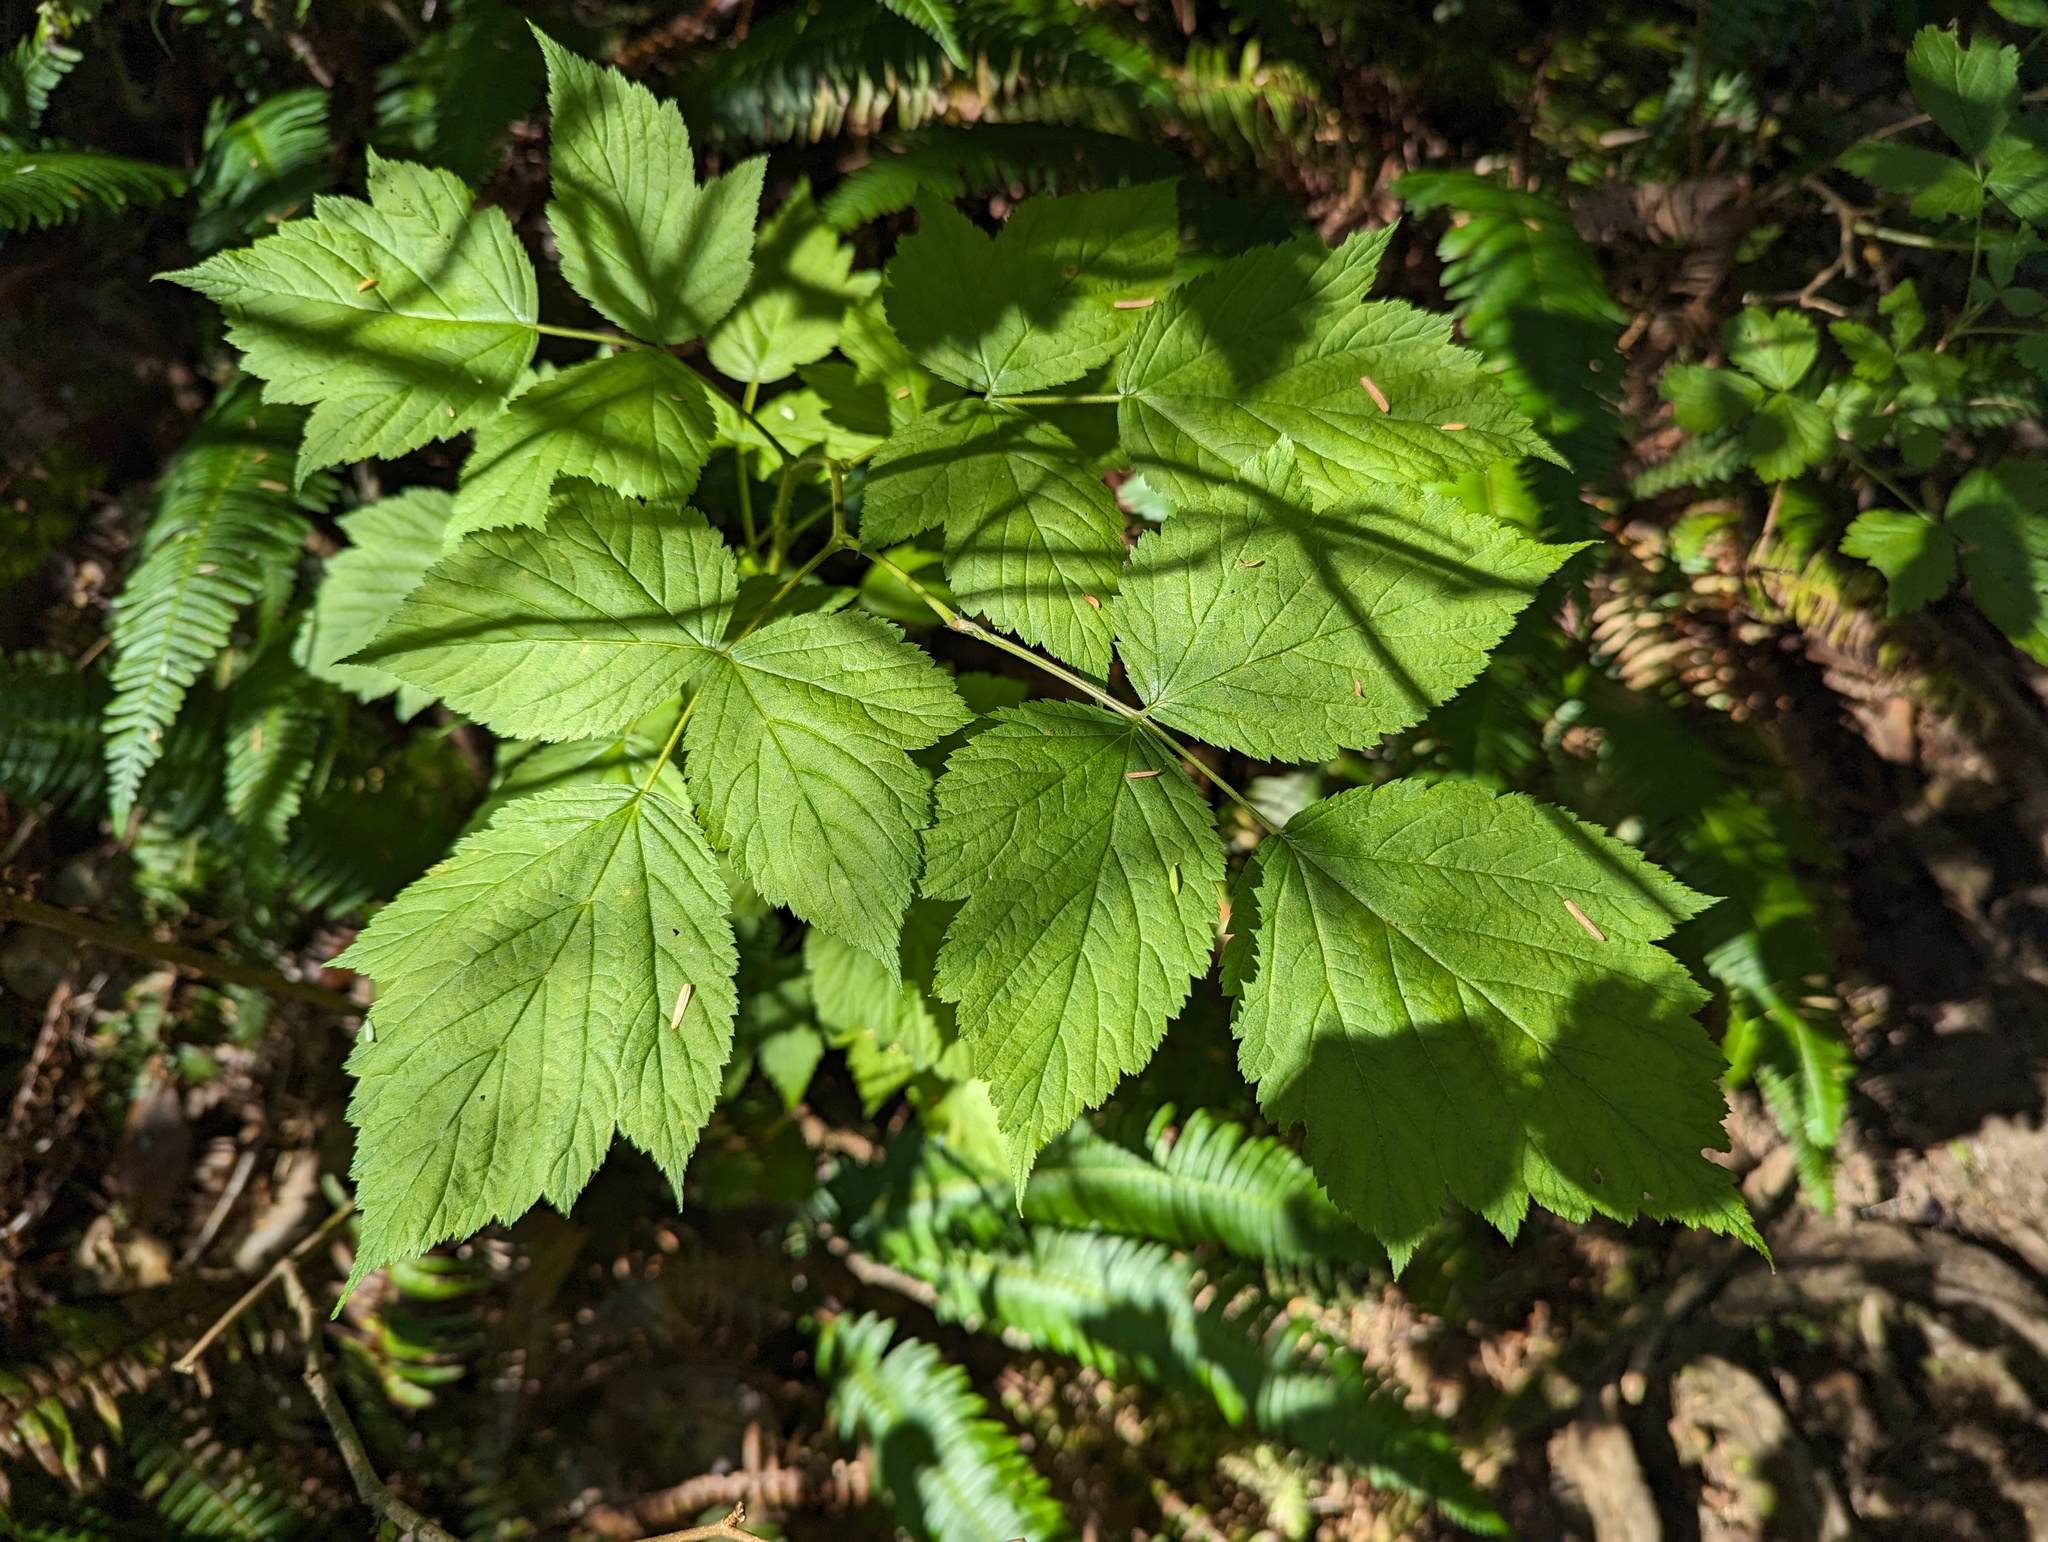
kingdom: Plantae
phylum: Tracheophyta
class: Magnoliopsida
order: Rosales
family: Rosaceae
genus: Rubus
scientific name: Rubus spectabilis
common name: Salmonberry
